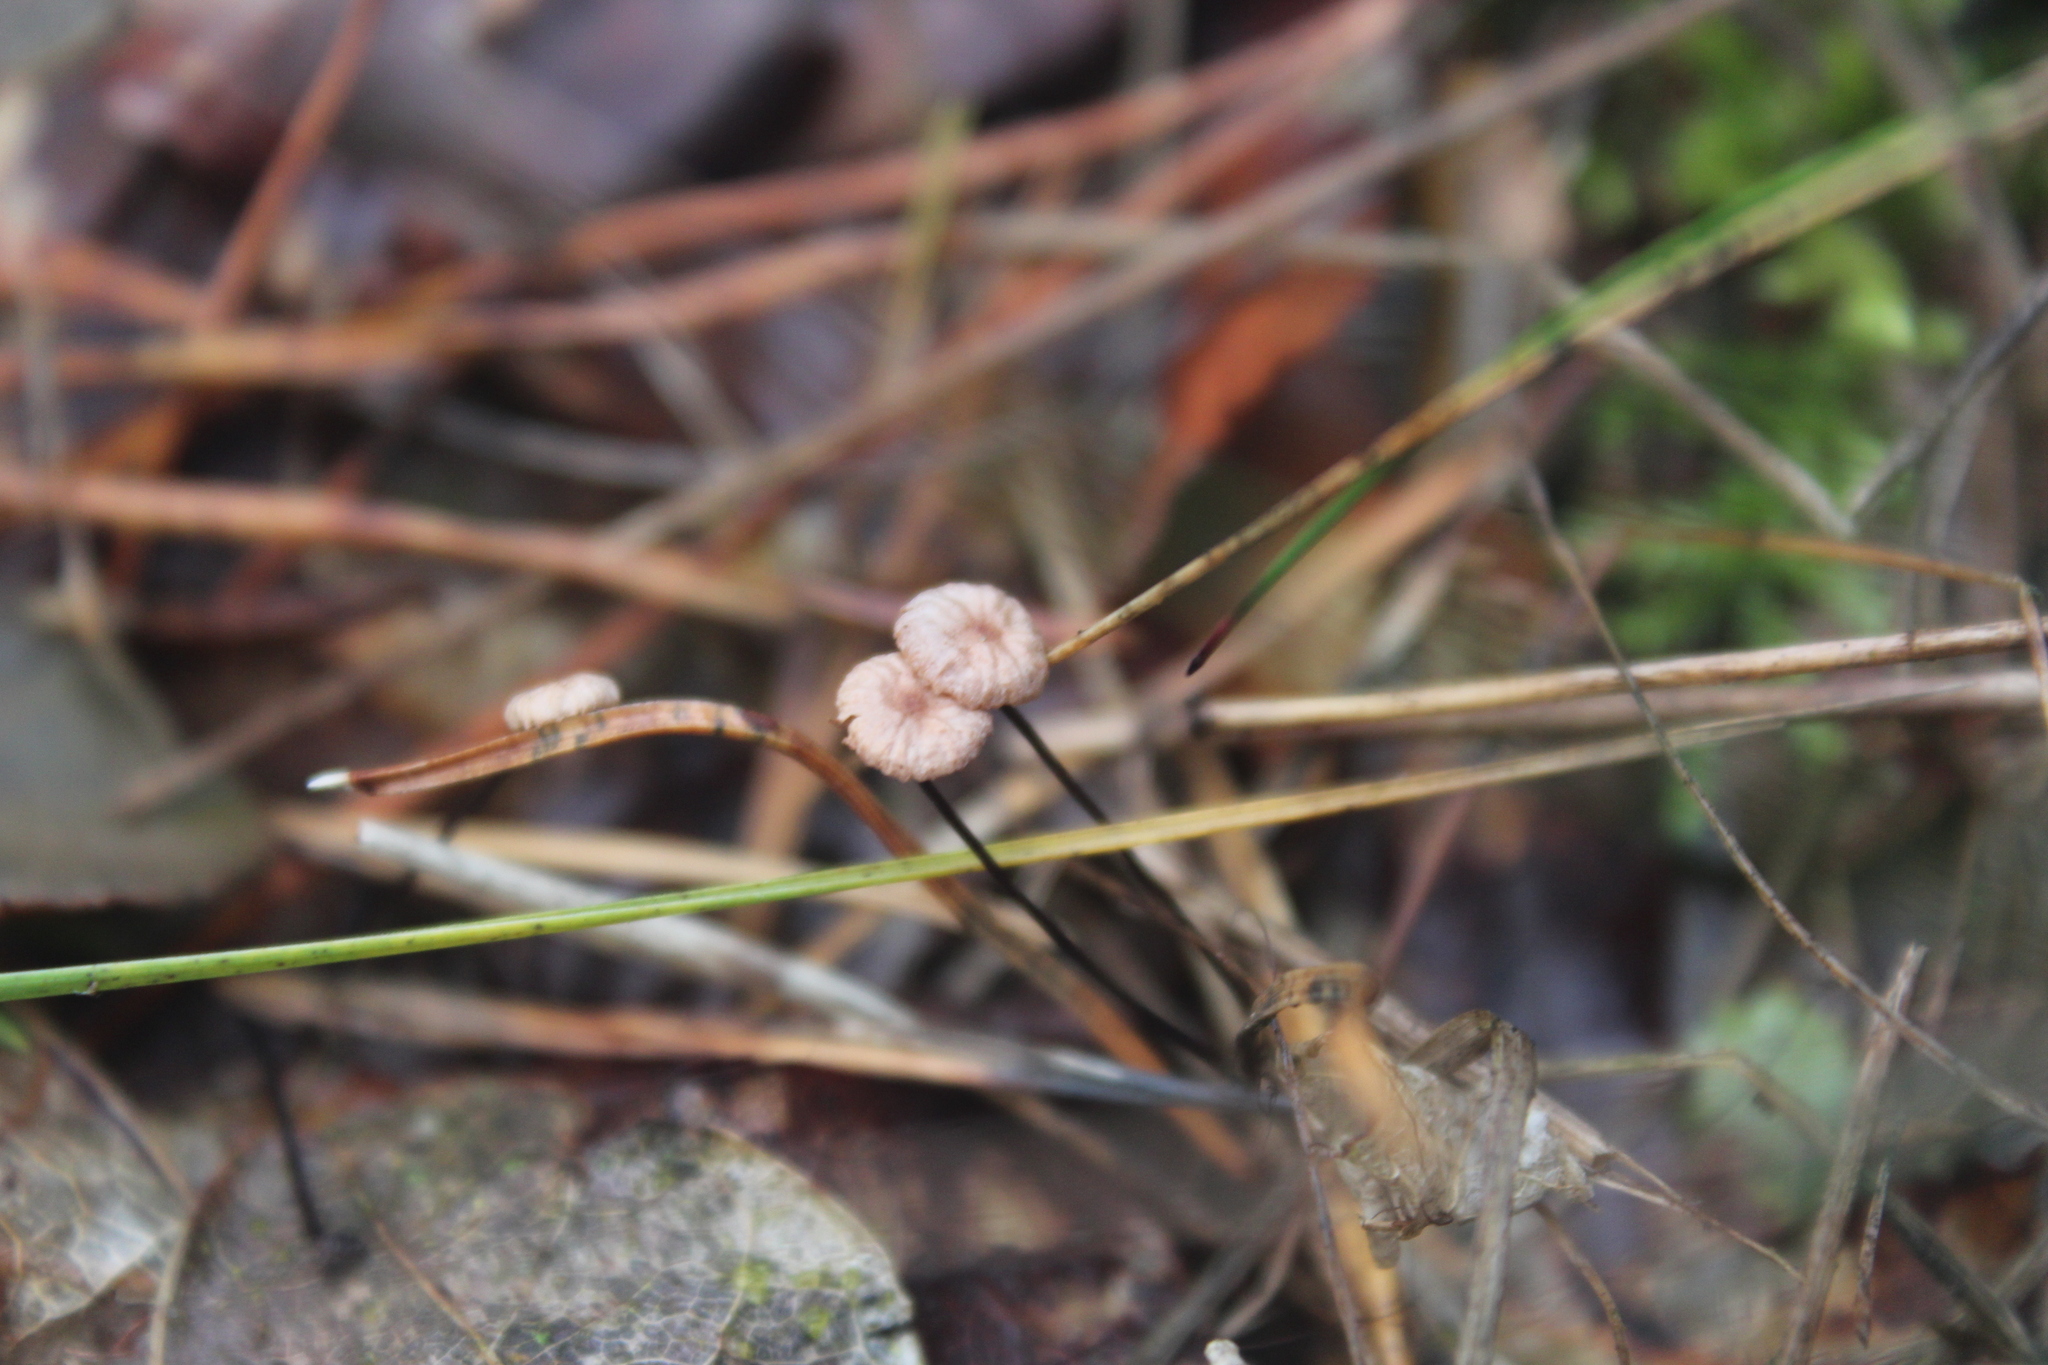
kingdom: Fungi
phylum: Basidiomycota
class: Agaricomycetes
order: Agaricales
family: Omphalotaceae
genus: Gymnopus
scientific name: Gymnopus androsaceus
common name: Horse-hair fungus
